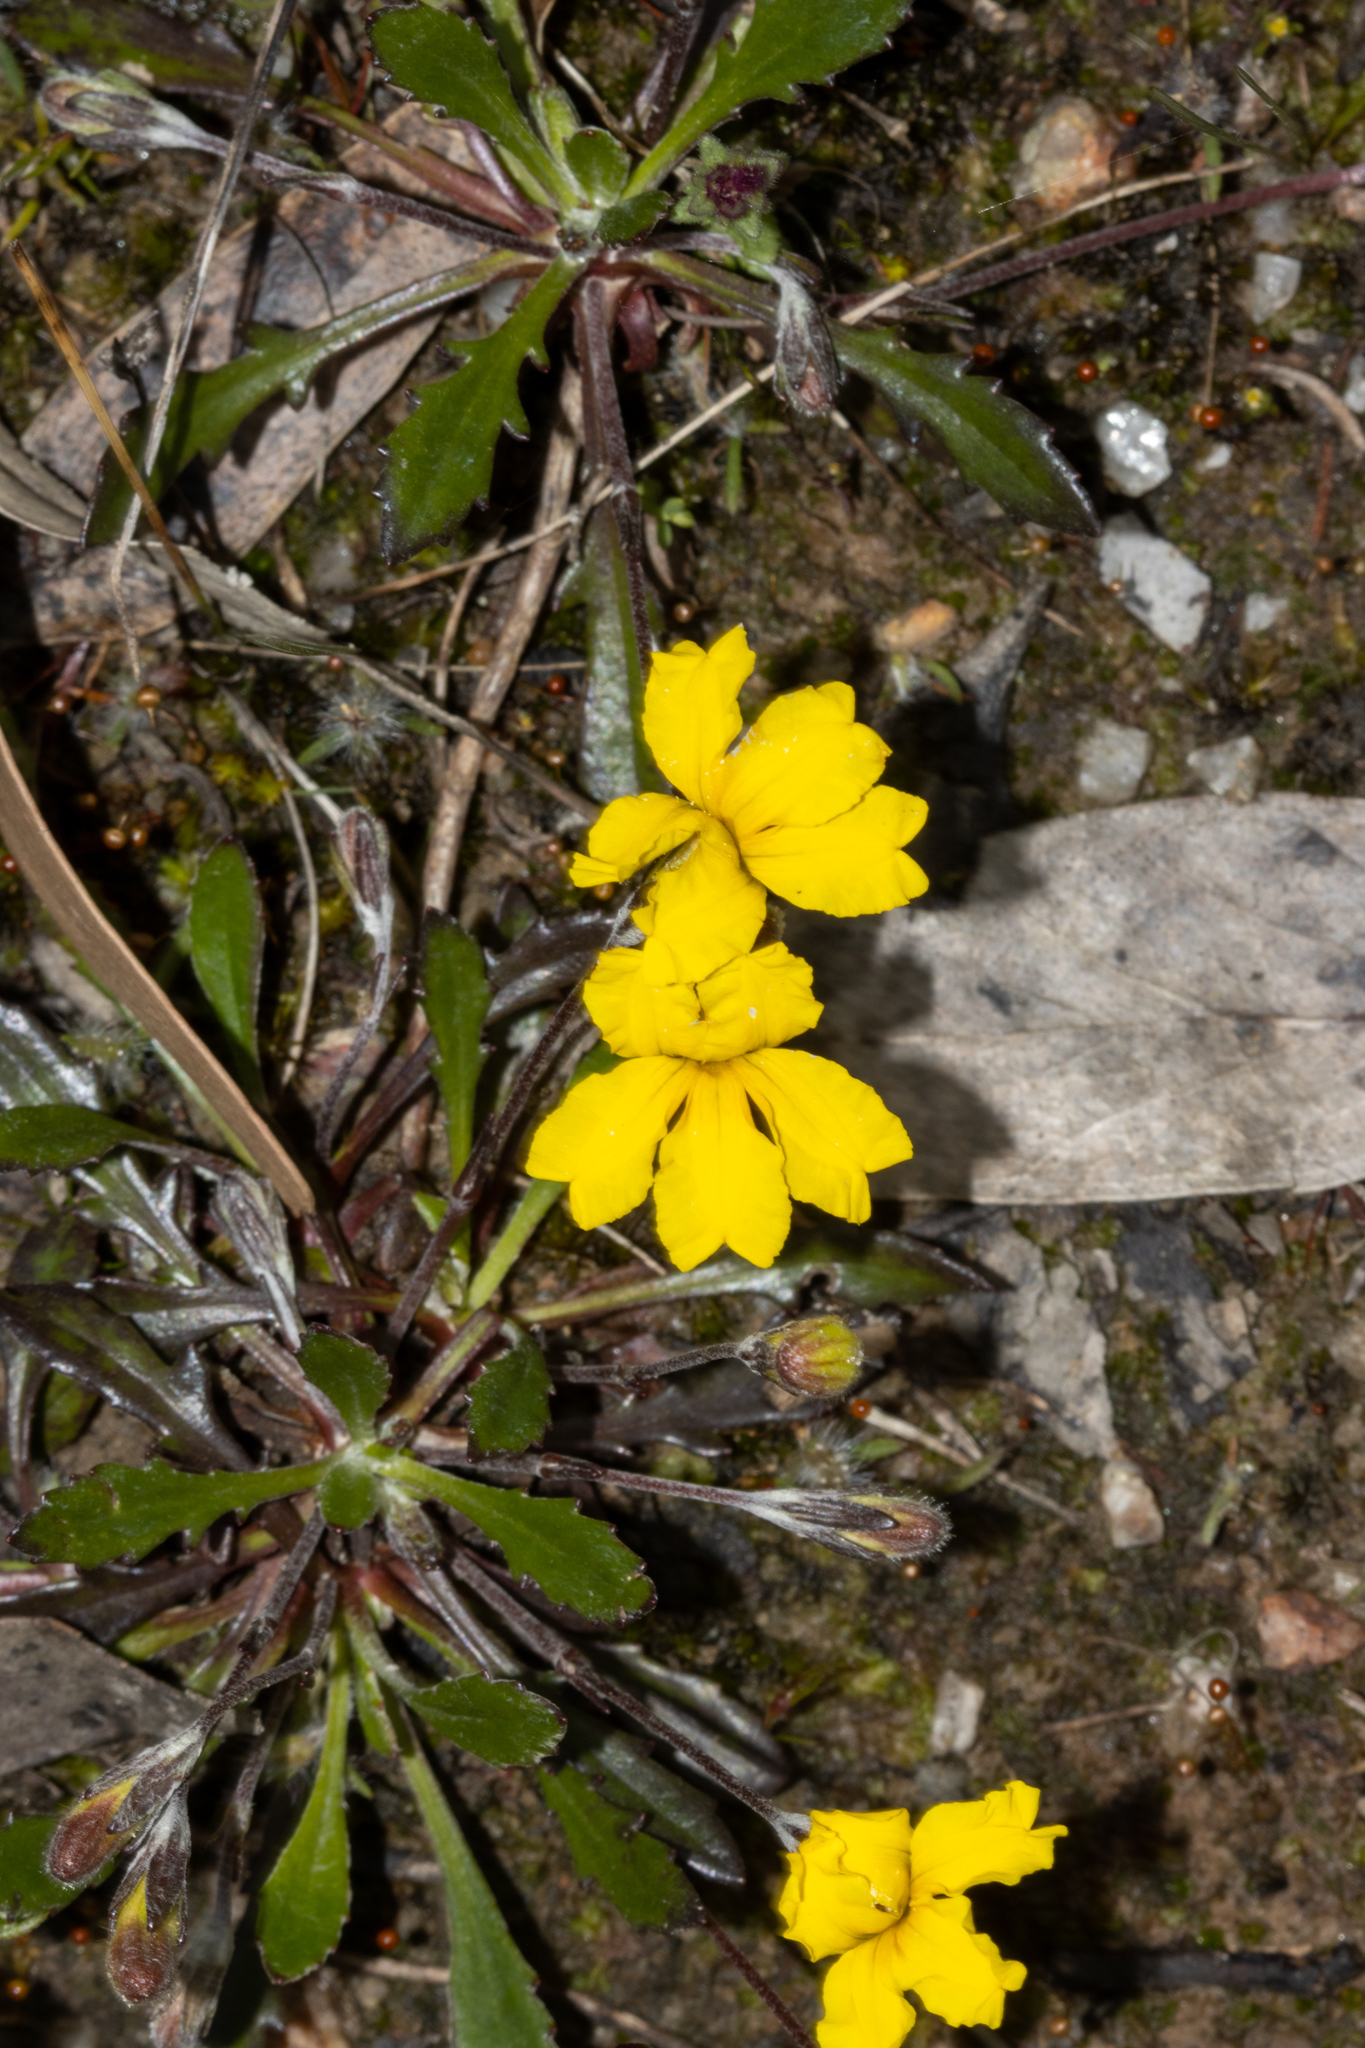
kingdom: Plantae
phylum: Tracheophyta
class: Magnoliopsida
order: Asterales
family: Goodeniaceae
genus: Goodenia
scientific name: Goodenia blackiana
